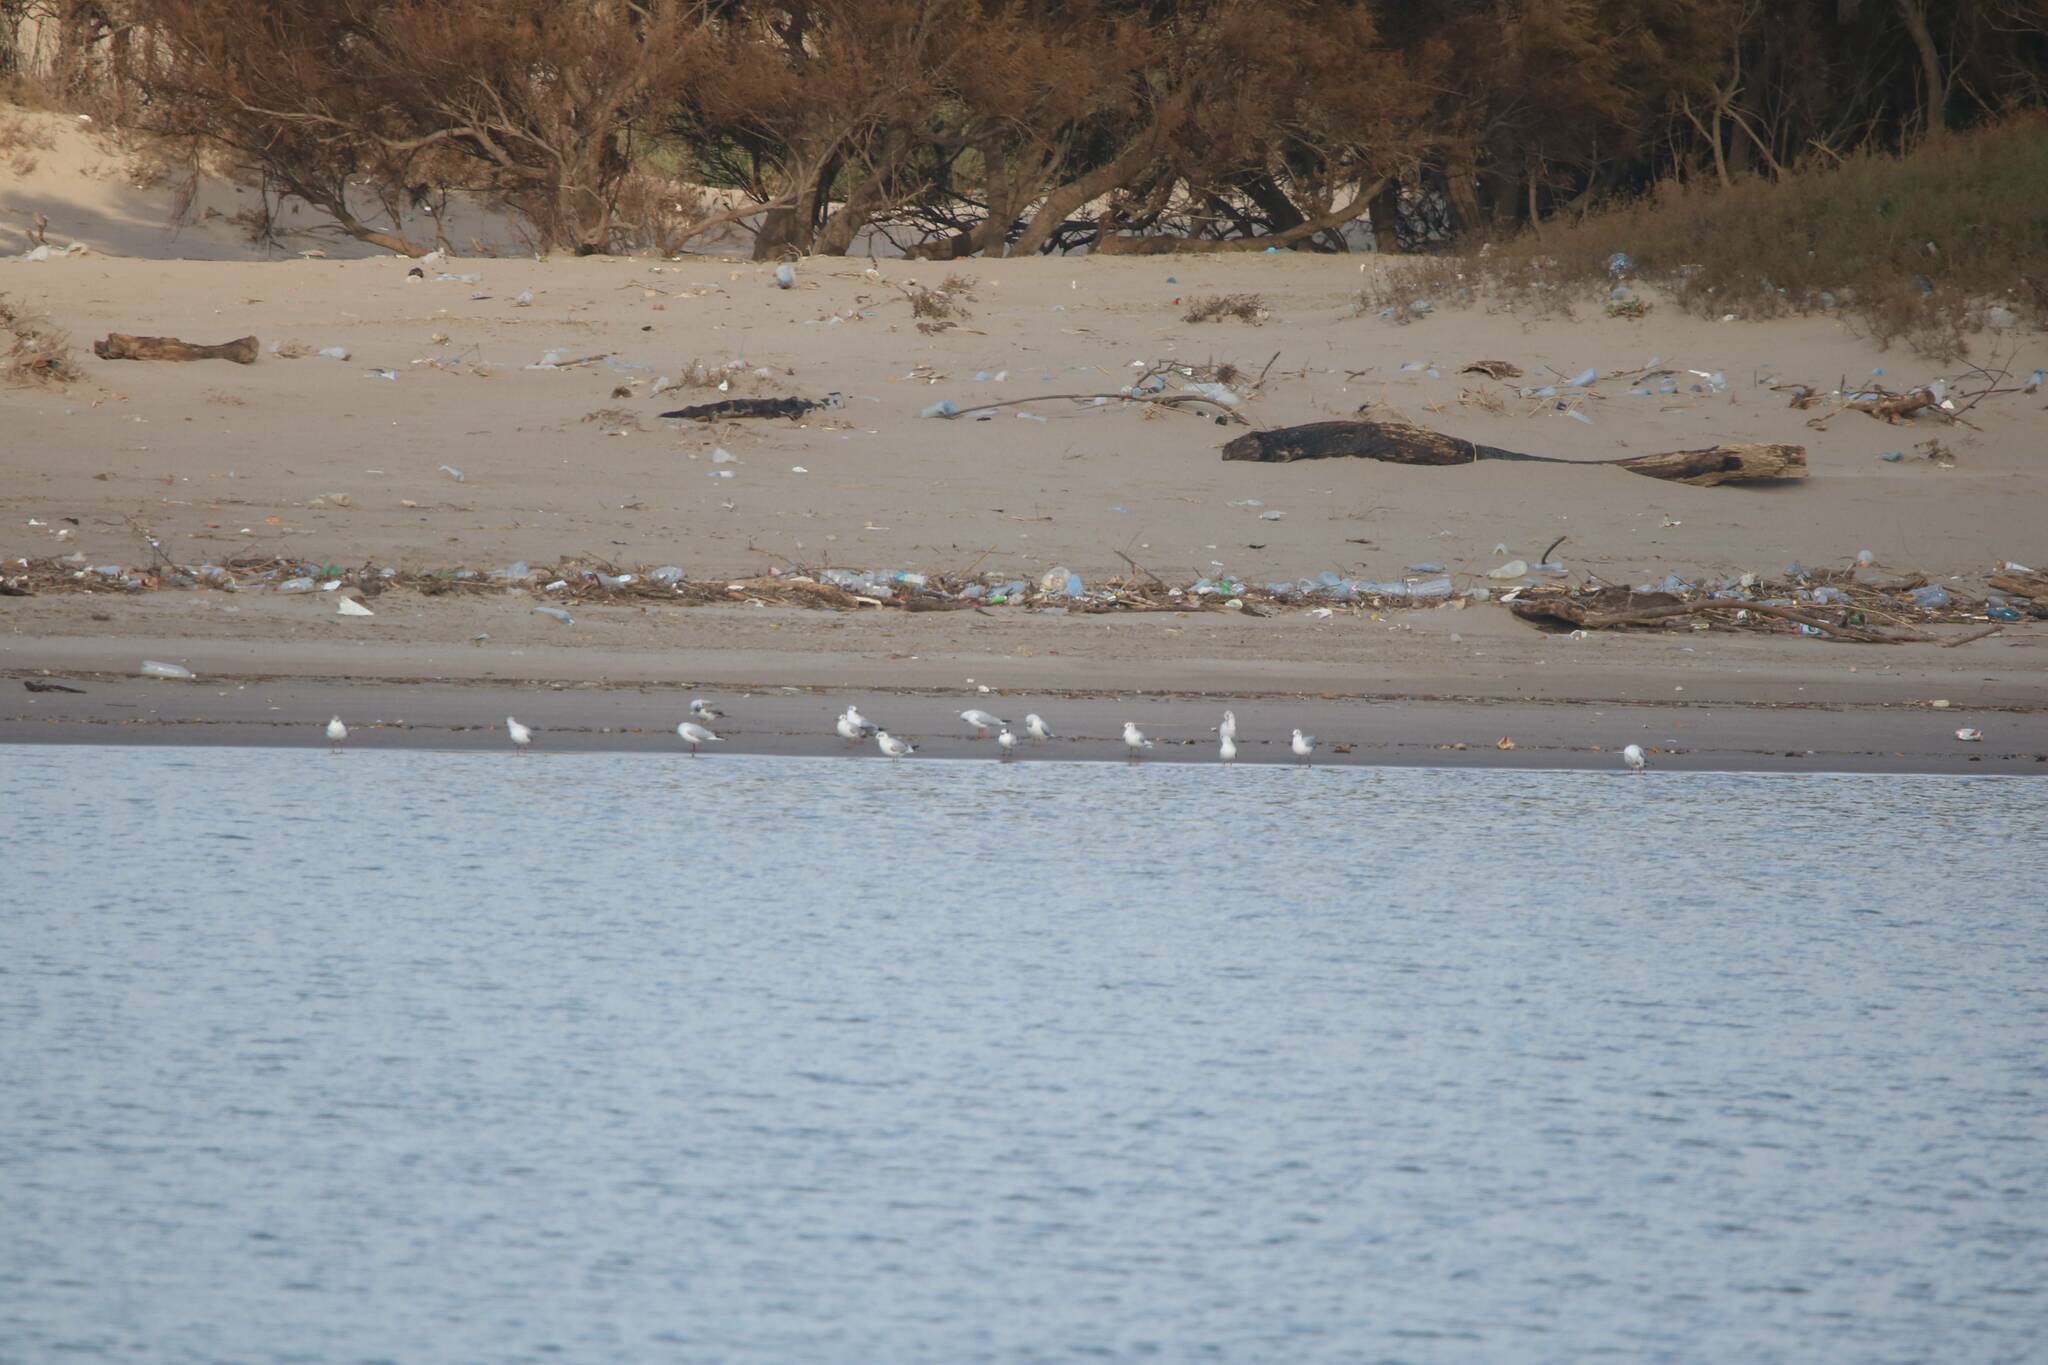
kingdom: Animalia
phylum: Chordata
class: Aves
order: Charadriiformes
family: Laridae
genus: Chroicocephalus
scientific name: Chroicocephalus ridibundus
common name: Black-headed gull
